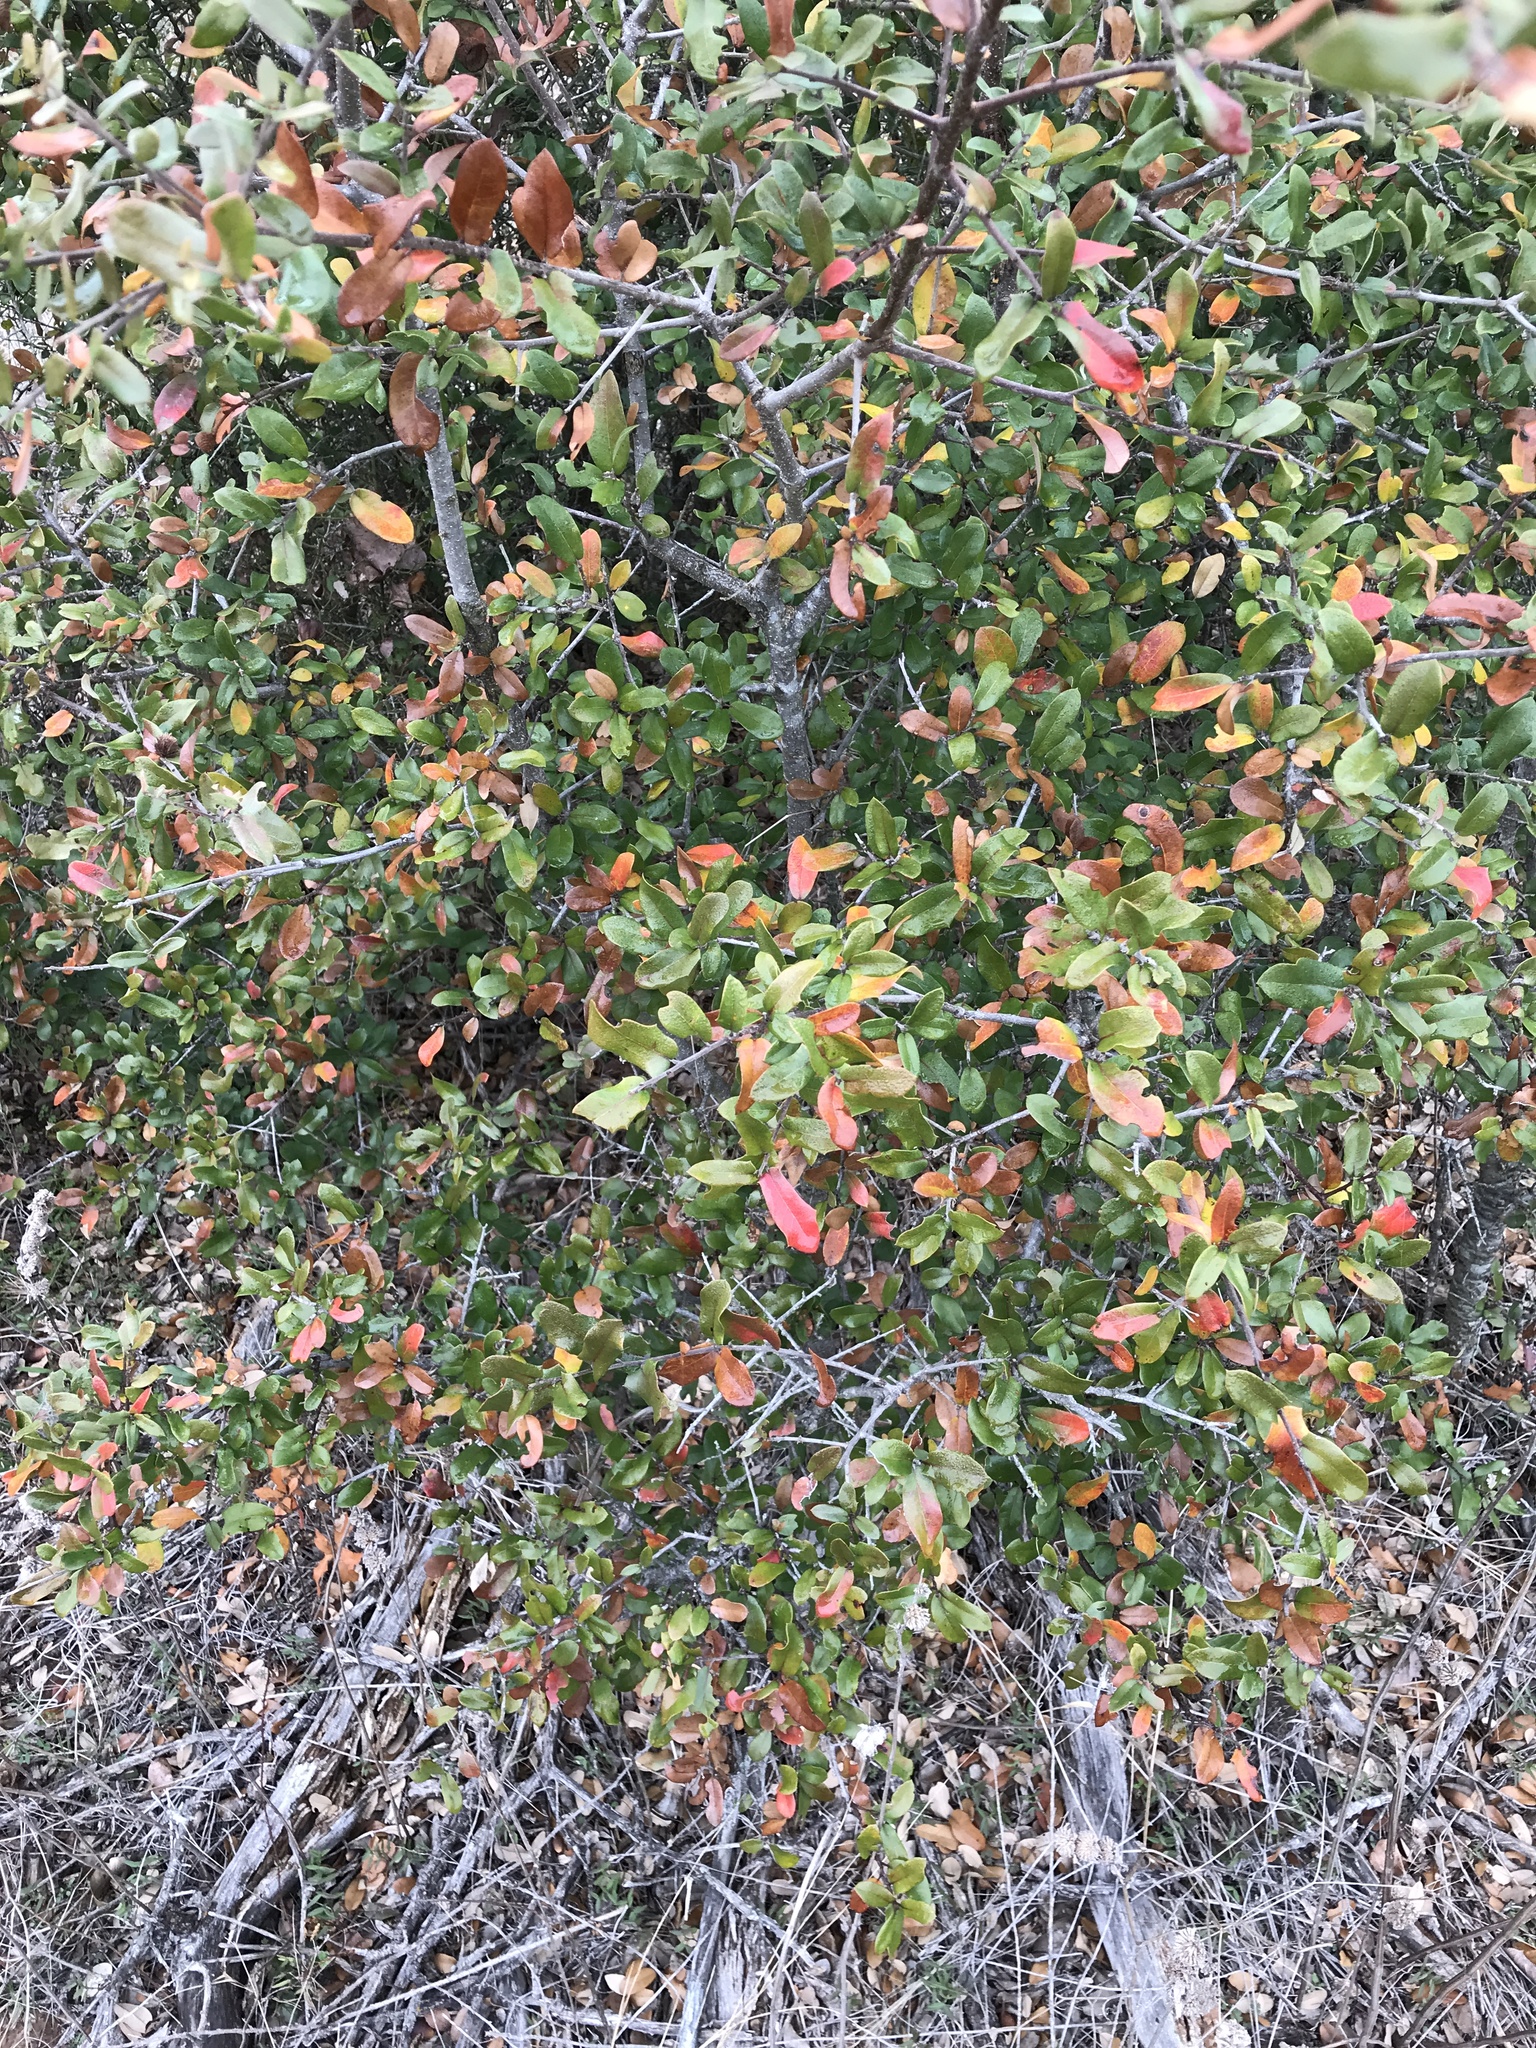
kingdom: Plantae
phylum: Tracheophyta
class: Magnoliopsida
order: Fagales
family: Fagaceae
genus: Quercus
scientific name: Quercus fusiformis
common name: Texas live oak
